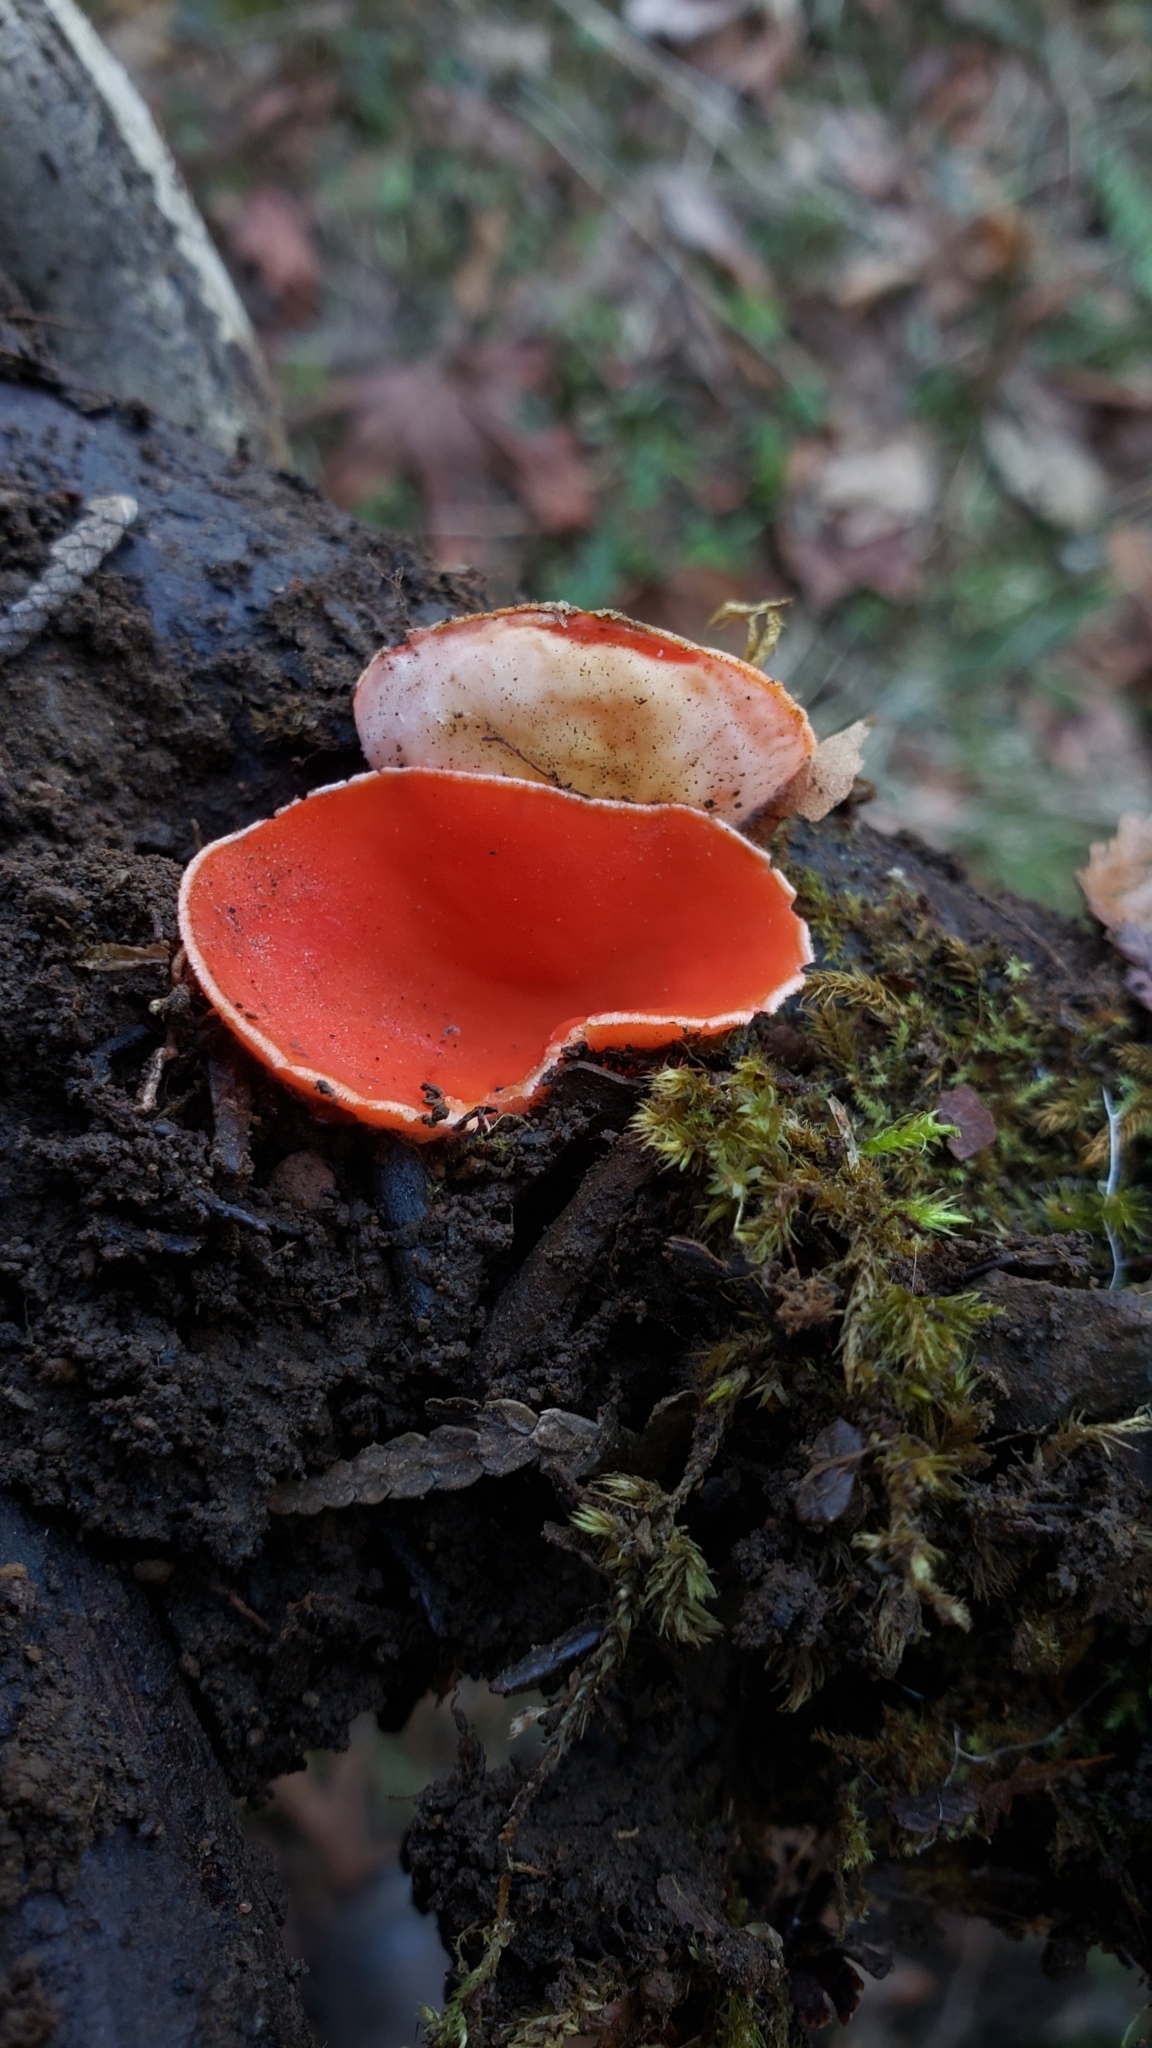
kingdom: Fungi
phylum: Ascomycota
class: Pezizomycetes
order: Pezizales
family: Sarcoscyphaceae
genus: Sarcoscypha
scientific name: Sarcoscypha coccinea
